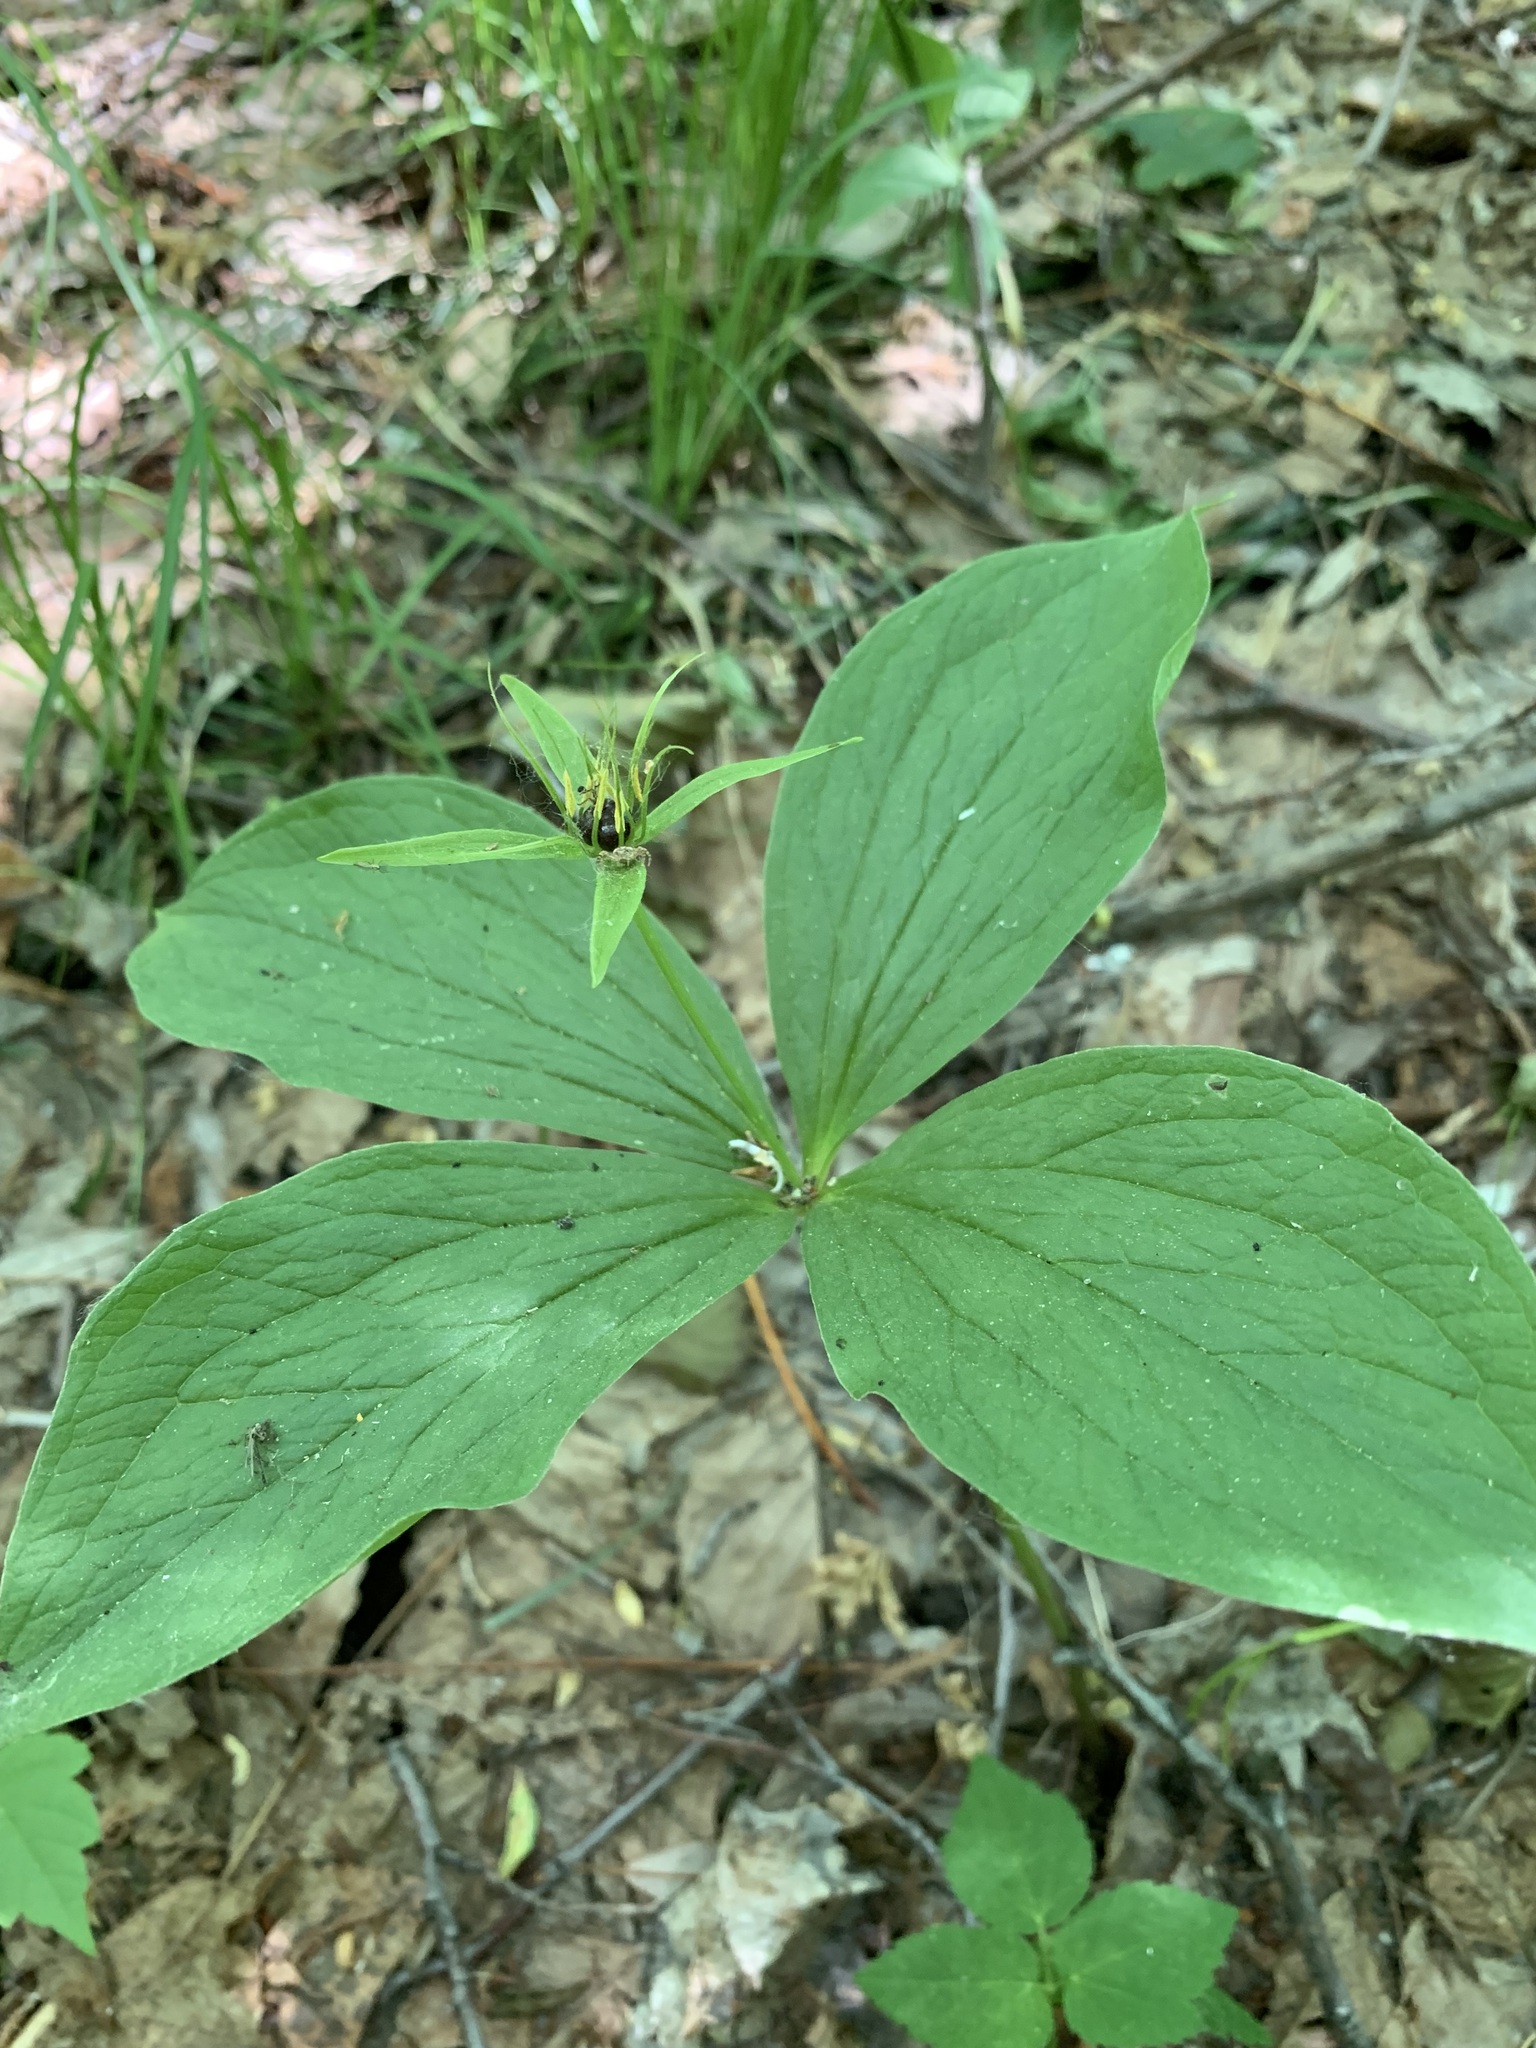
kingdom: Plantae
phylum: Tracheophyta
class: Liliopsida
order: Liliales
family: Melanthiaceae
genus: Paris
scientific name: Paris quadrifolia
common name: Herb-paris
